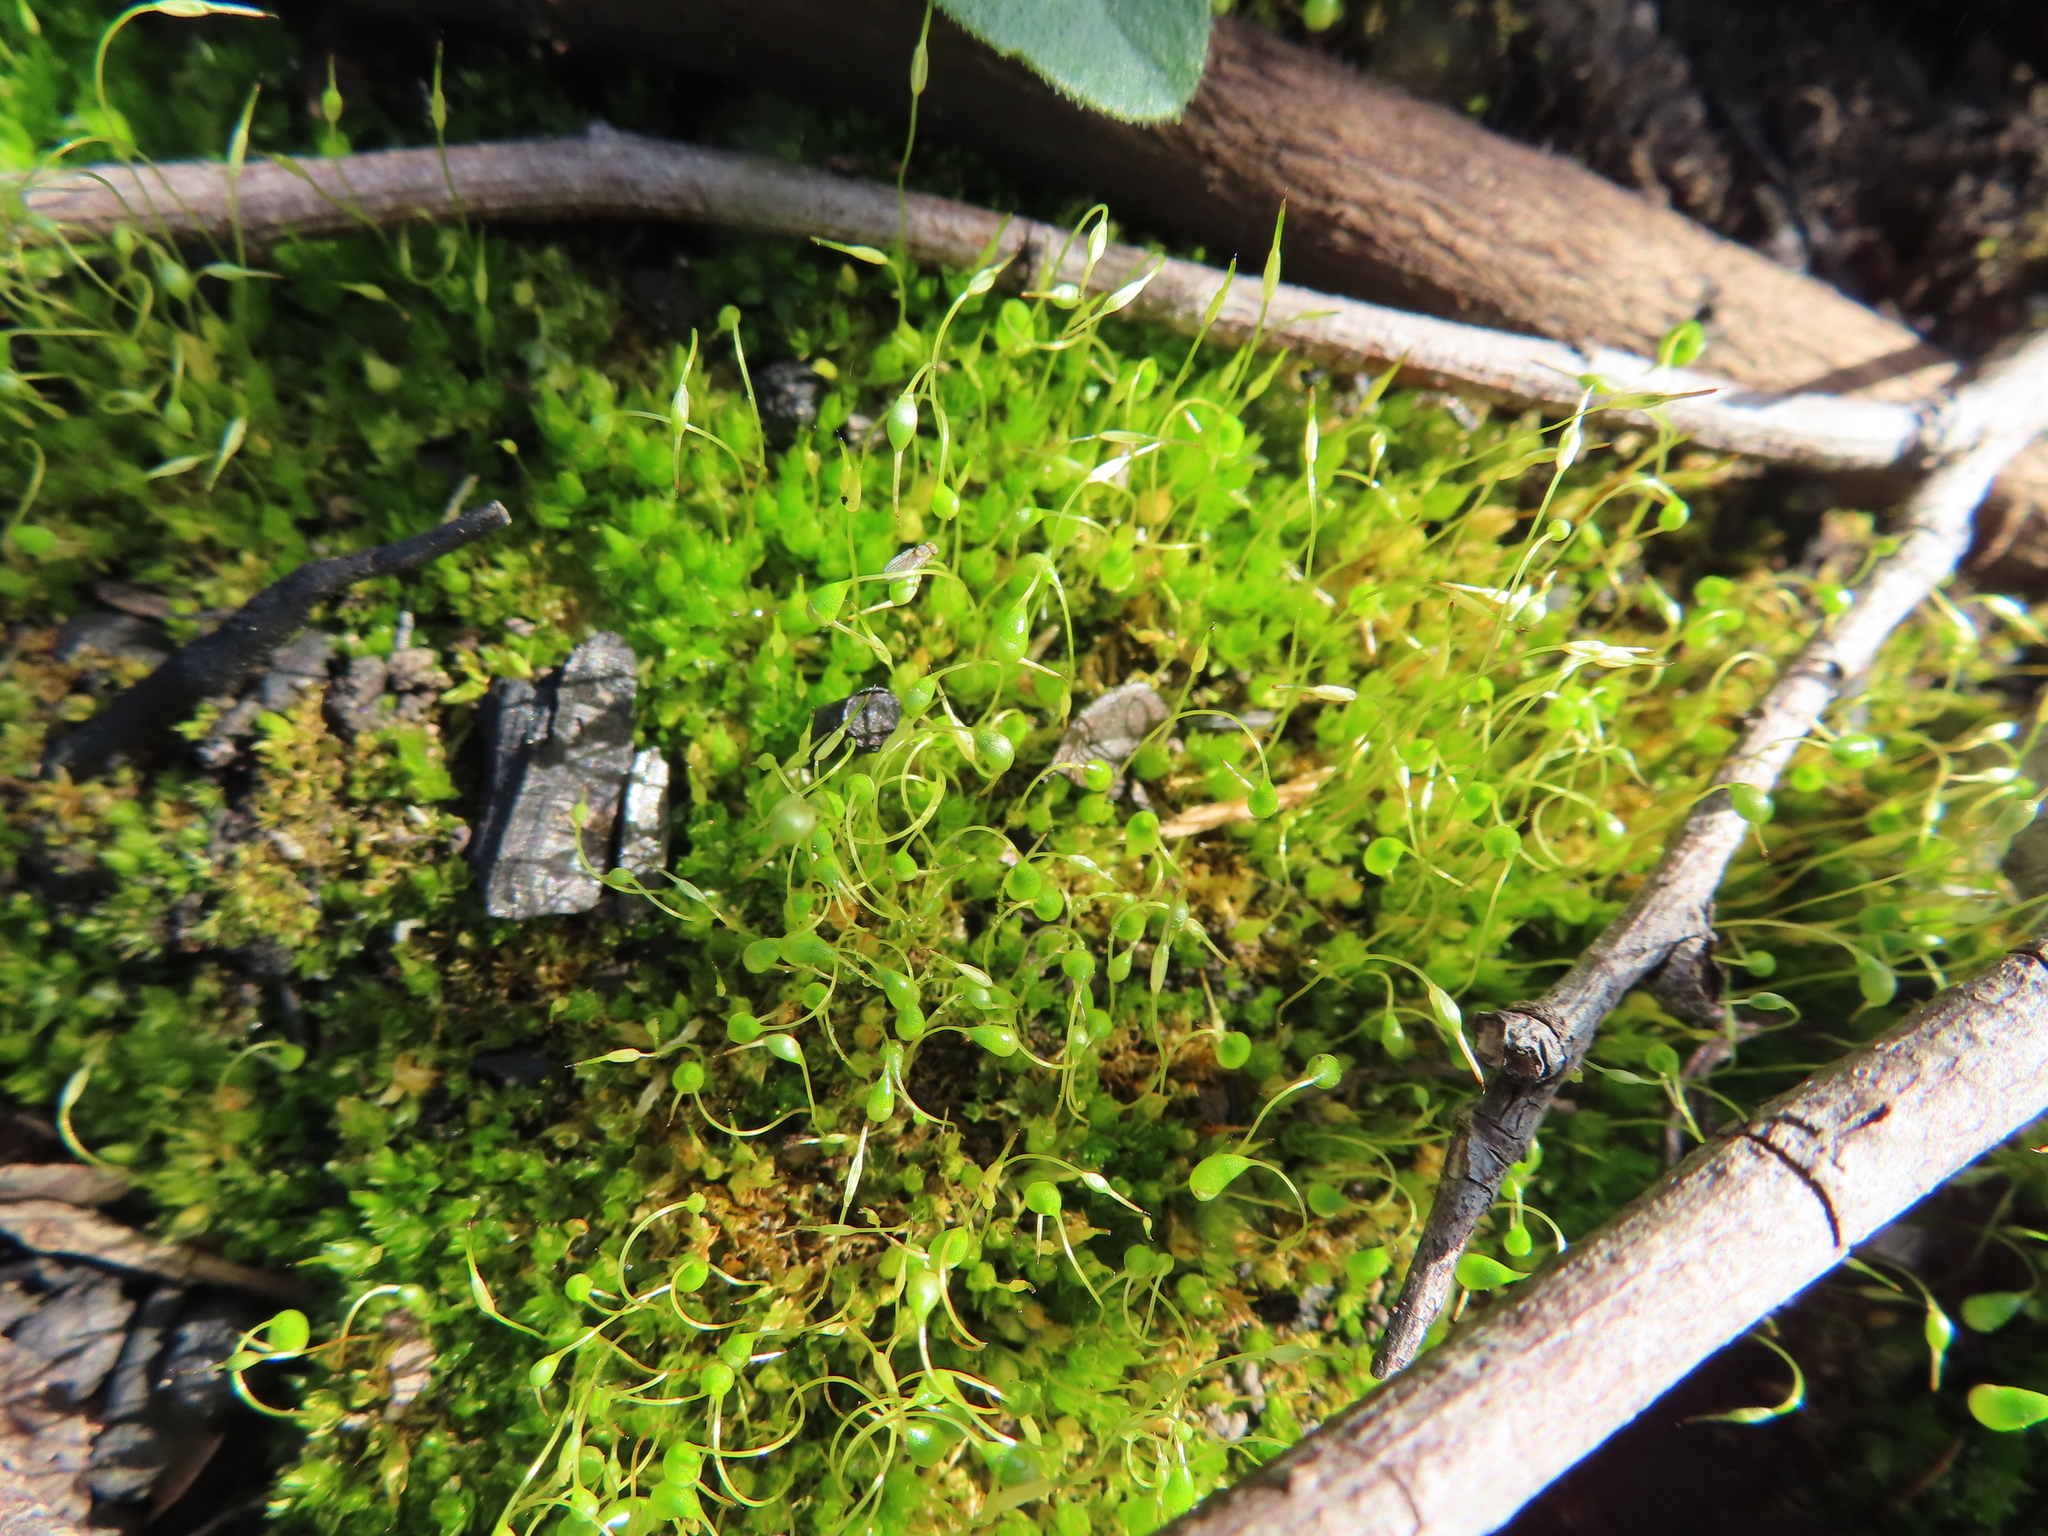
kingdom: Plantae
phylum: Bryophyta
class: Bryopsida
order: Funariales
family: Funariaceae
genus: Funaria
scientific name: Funaria hygrometrica
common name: Common cord moss
